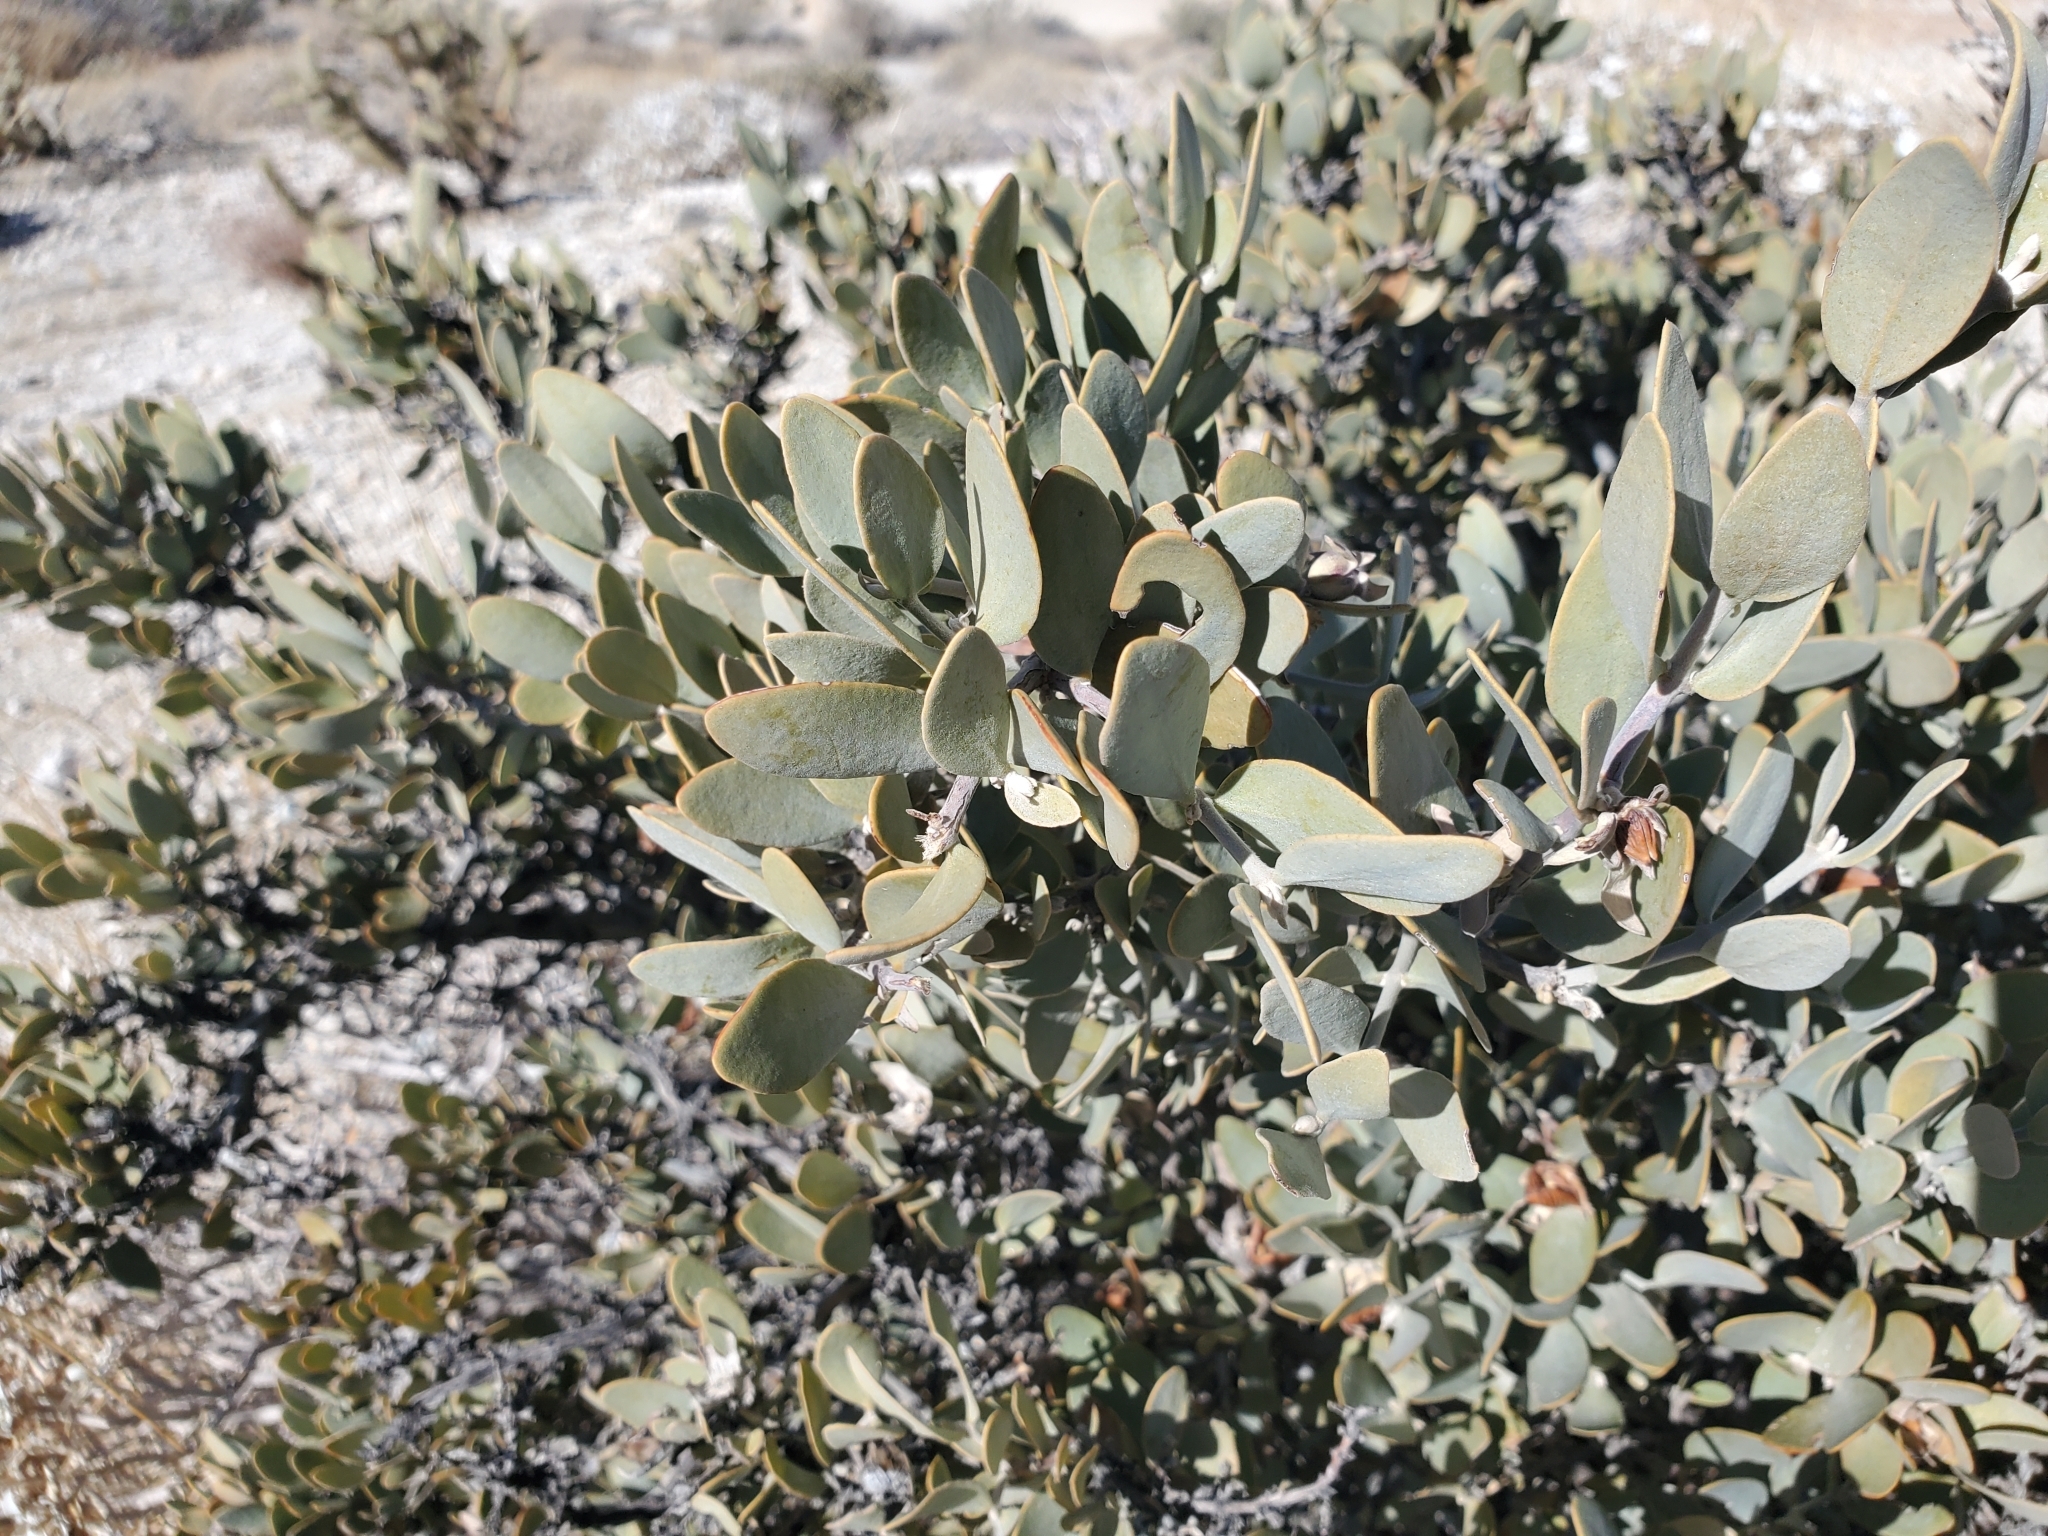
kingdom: Plantae
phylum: Tracheophyta
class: Magnoliopsida
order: Caryophyllales
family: Simmondsiaceae
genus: Simmondsia
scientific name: Simmondsia chinensis
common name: Jojoba
